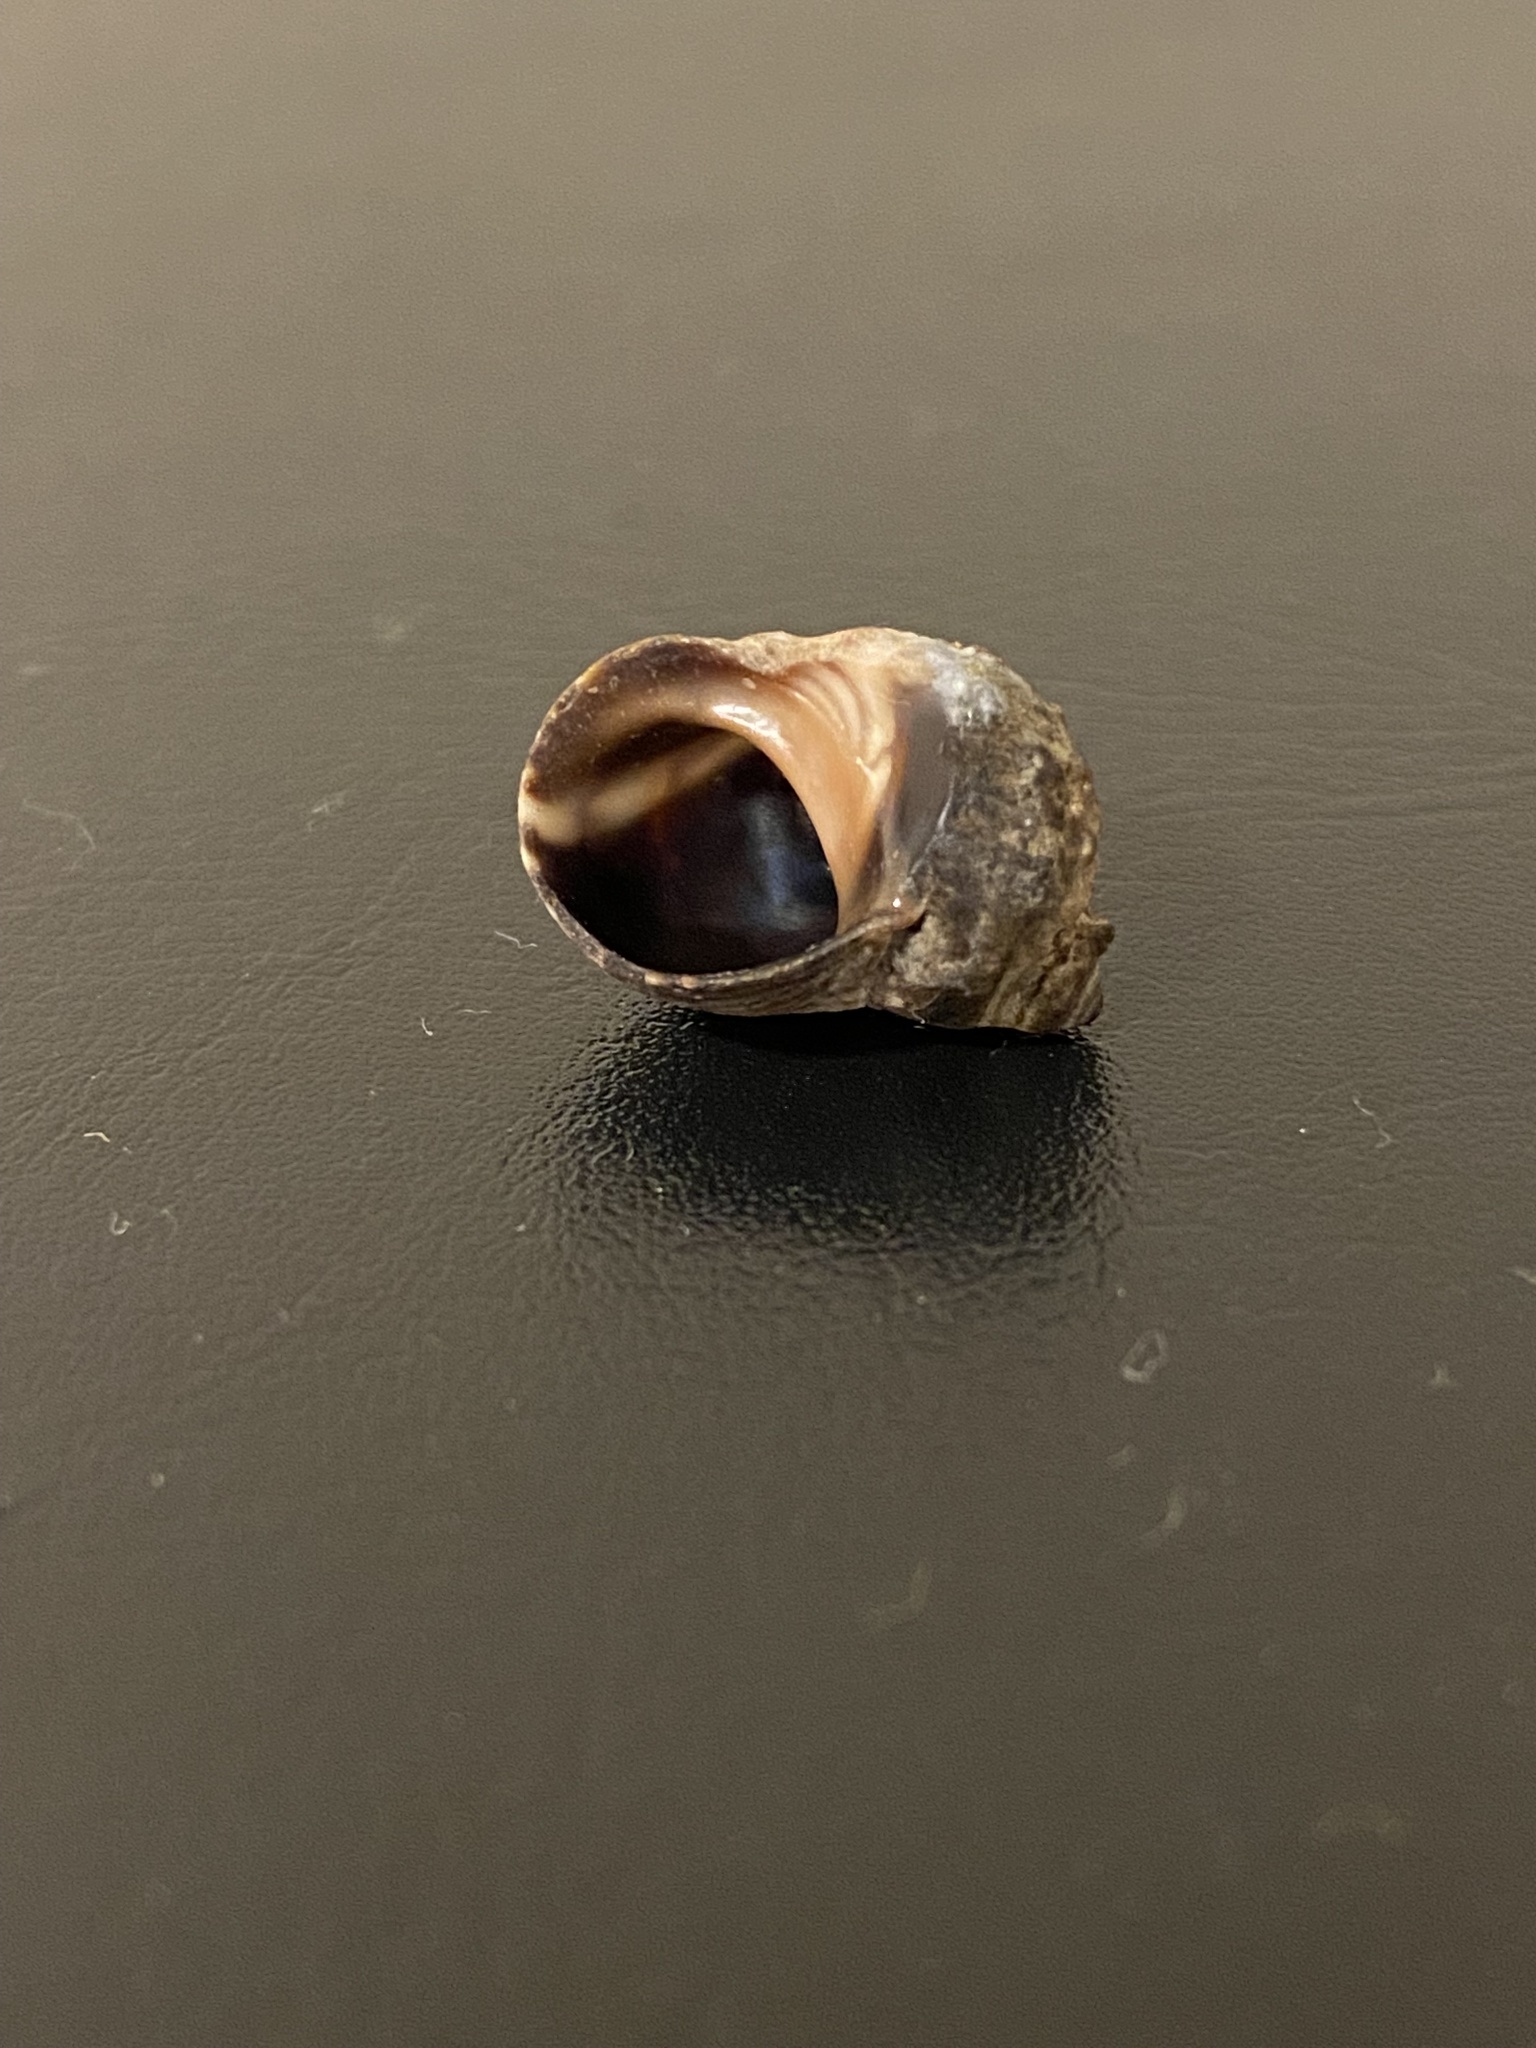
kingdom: Animalia
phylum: Mollusca
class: Gastropoda
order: Littorinimorpha
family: Littorinidae
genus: Littorina
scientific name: Littorina keenae
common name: Eroded periwinkle
